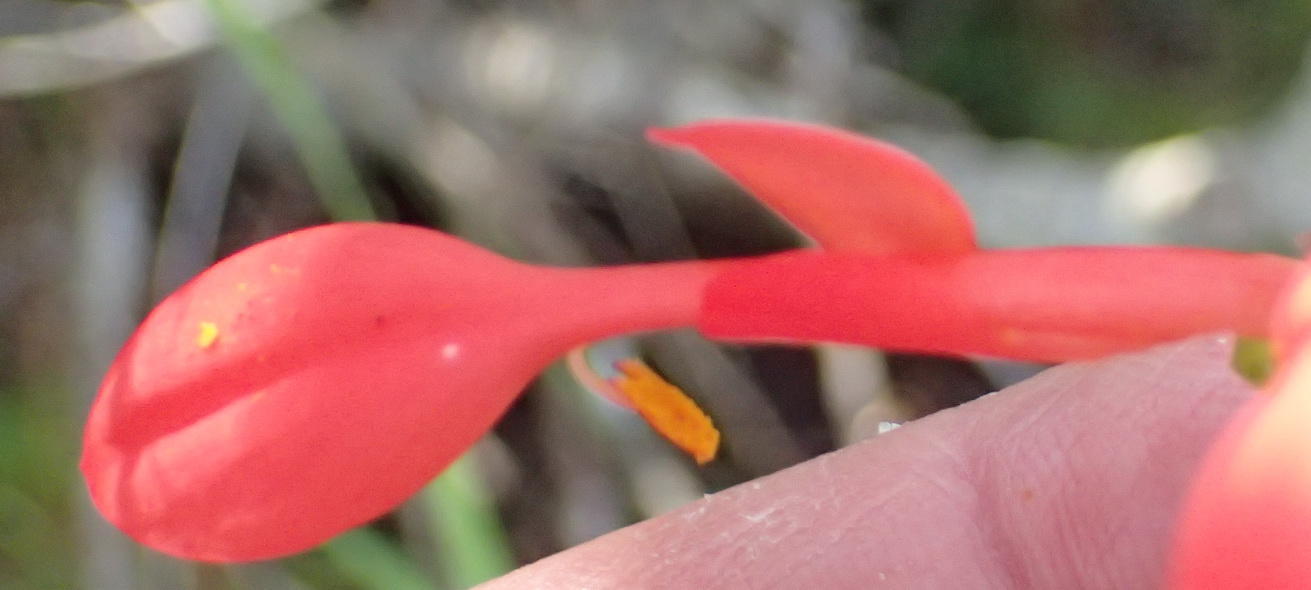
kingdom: Plantae
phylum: Tracheophyta
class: Liliopsida
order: Asparagales
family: Iridaceae
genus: Gladiolus
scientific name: Gladiolus cunonius
